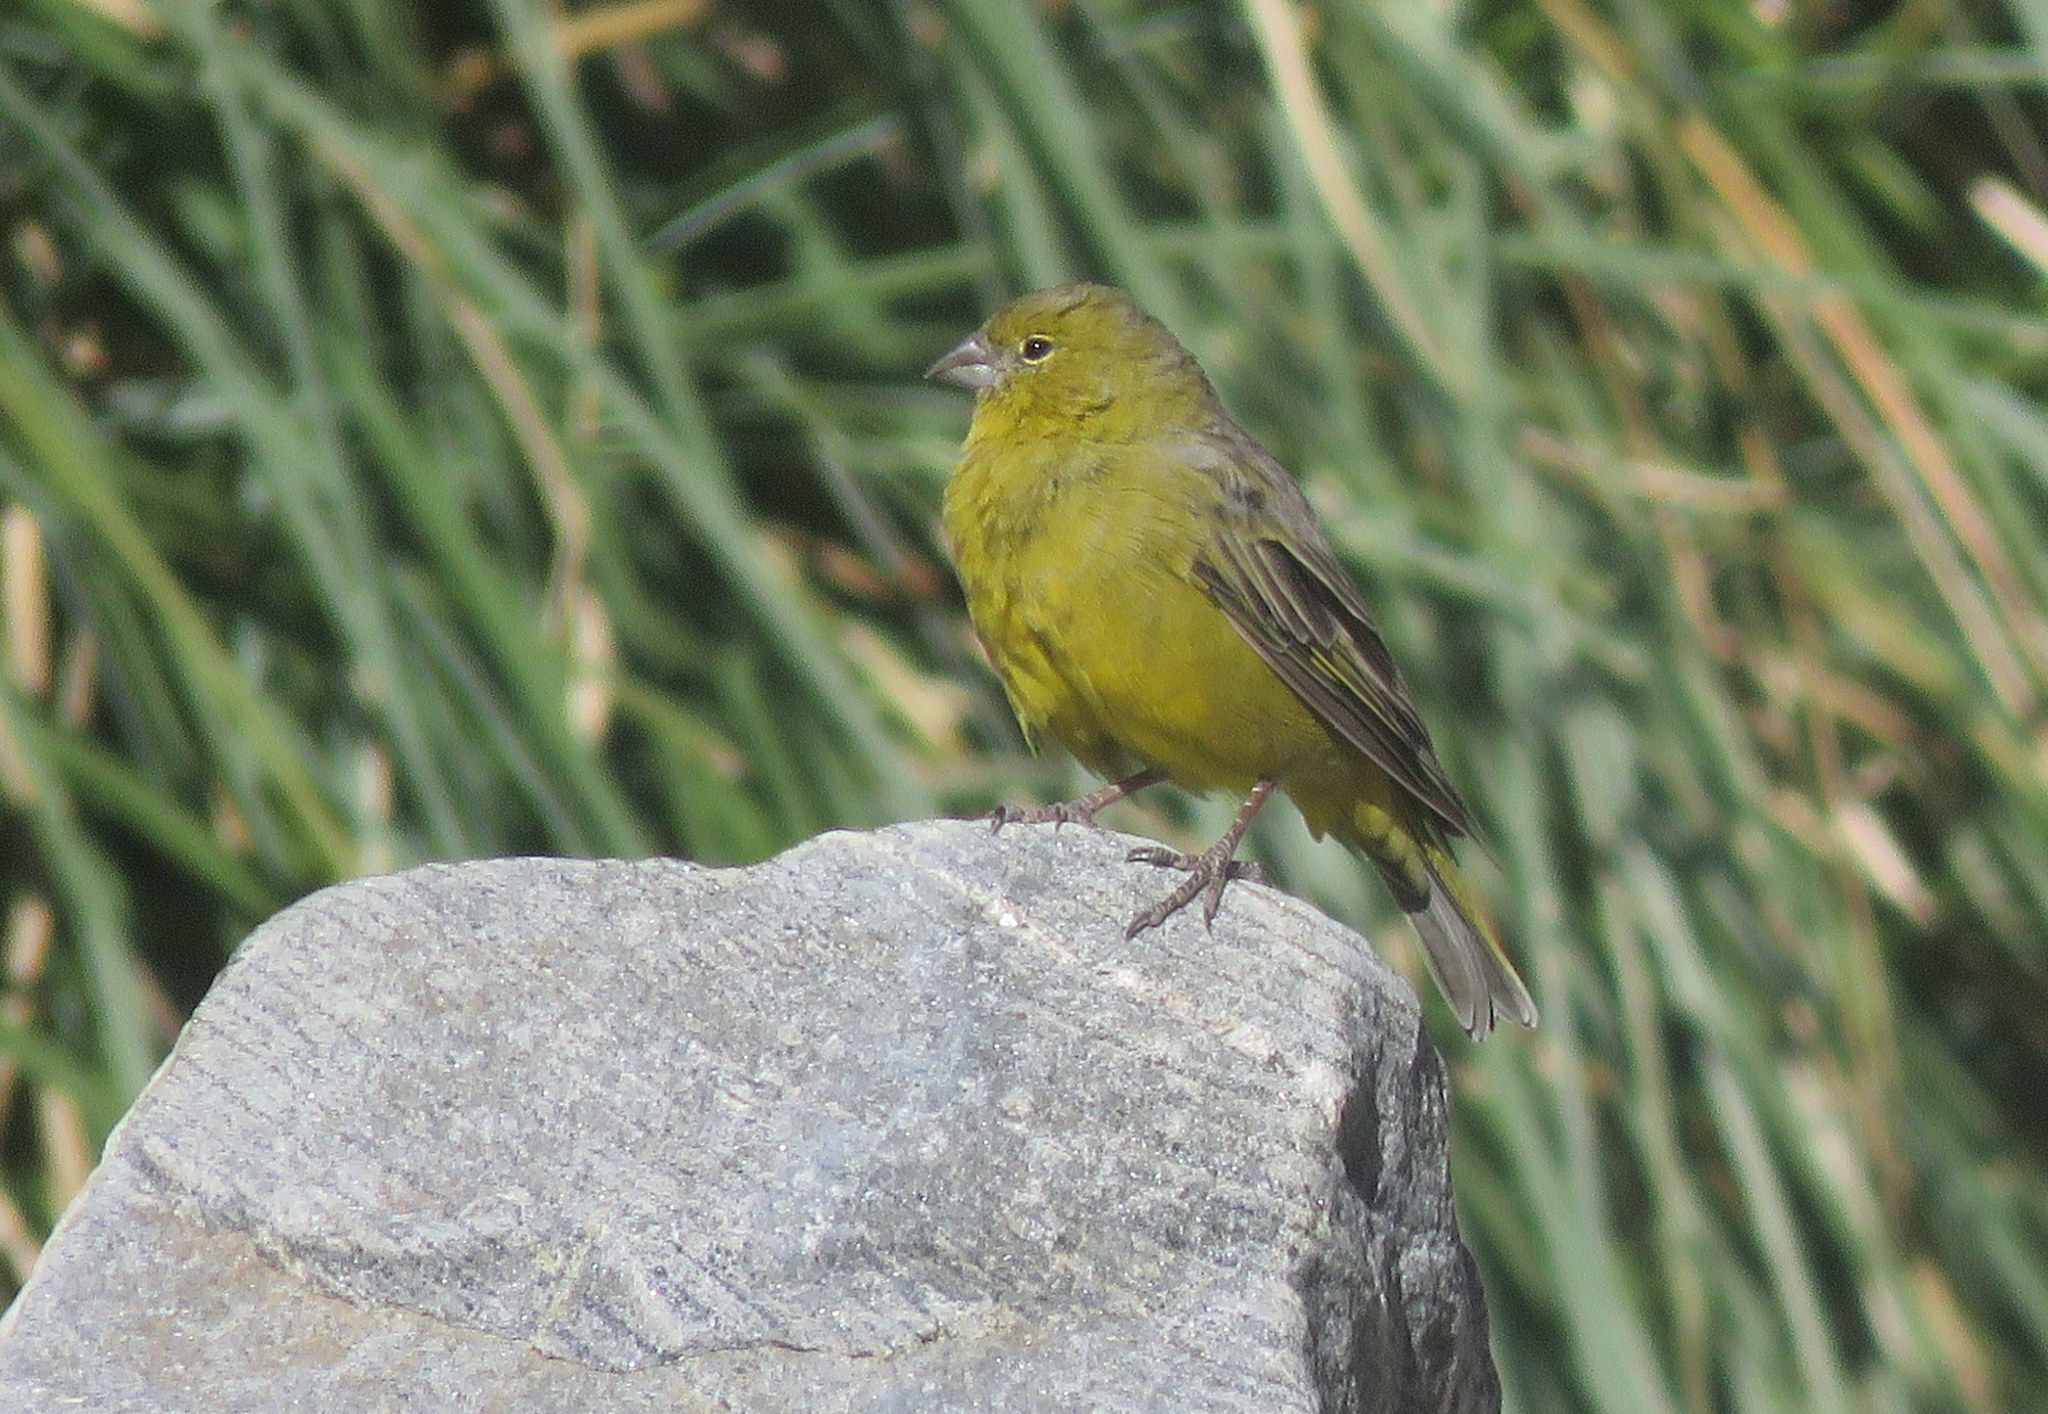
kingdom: Animalia
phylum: Chordata
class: Aves
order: Passeriformes
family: Thraupidae
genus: Sicalis
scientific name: Sicalis olivascens
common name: Greenish yellow finch
